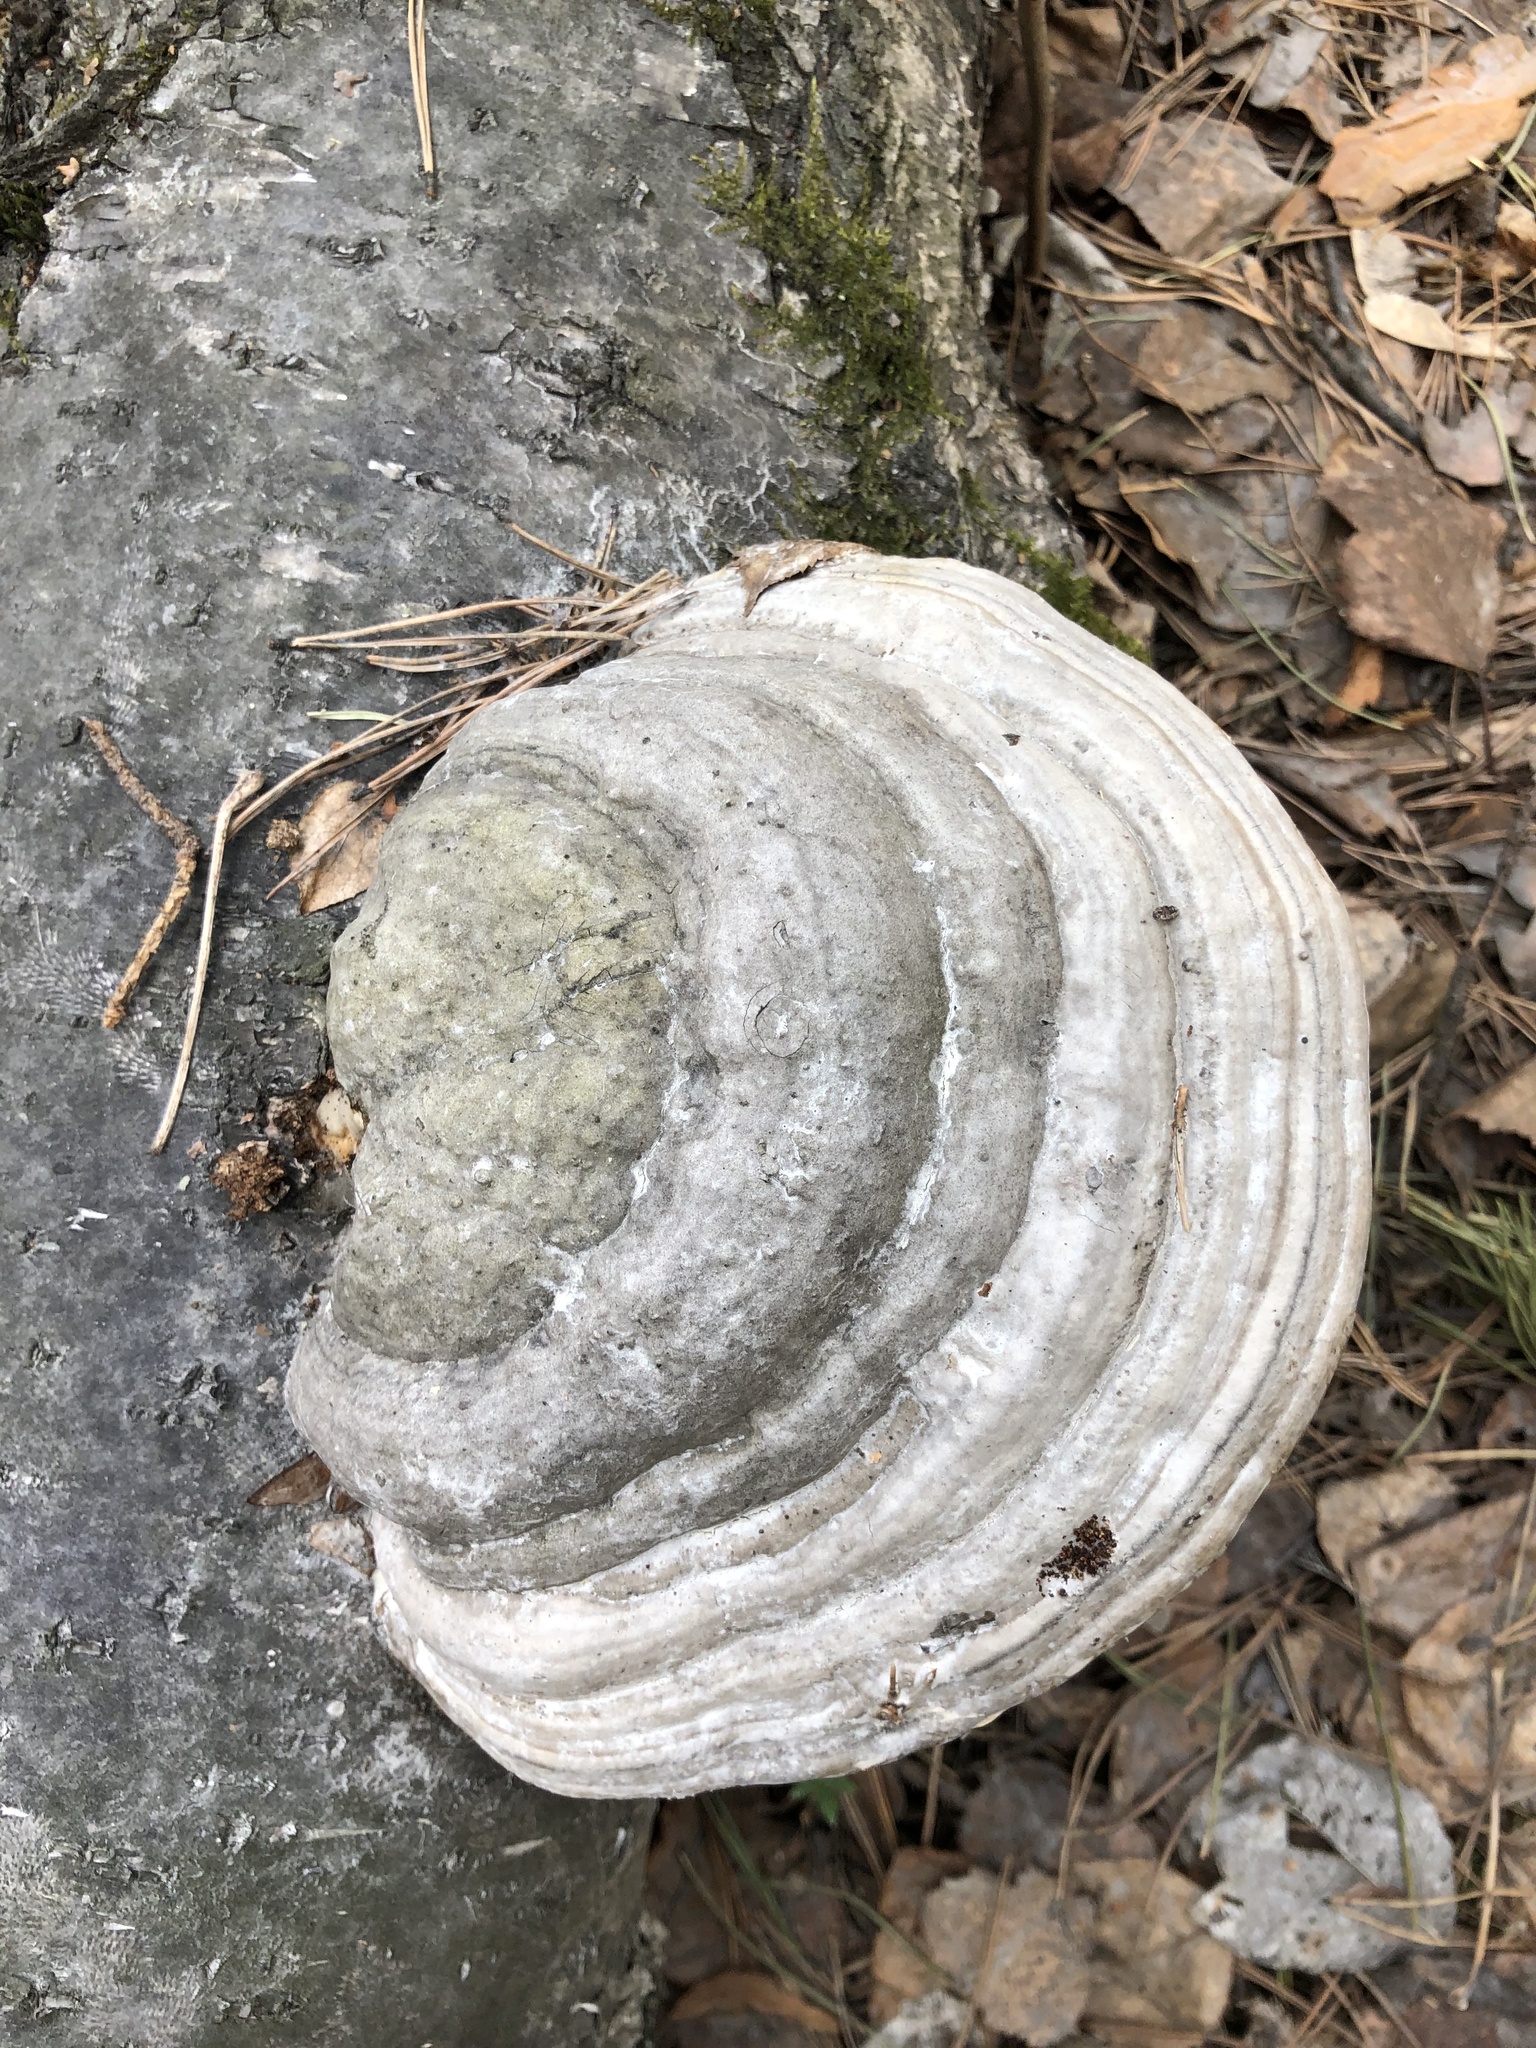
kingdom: Fungi
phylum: Basidiomycota
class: Agaricomycetes
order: Polyporales
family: Polyporaceae
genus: Fomes
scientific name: Fomes fomentarius
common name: Hoof fungus
